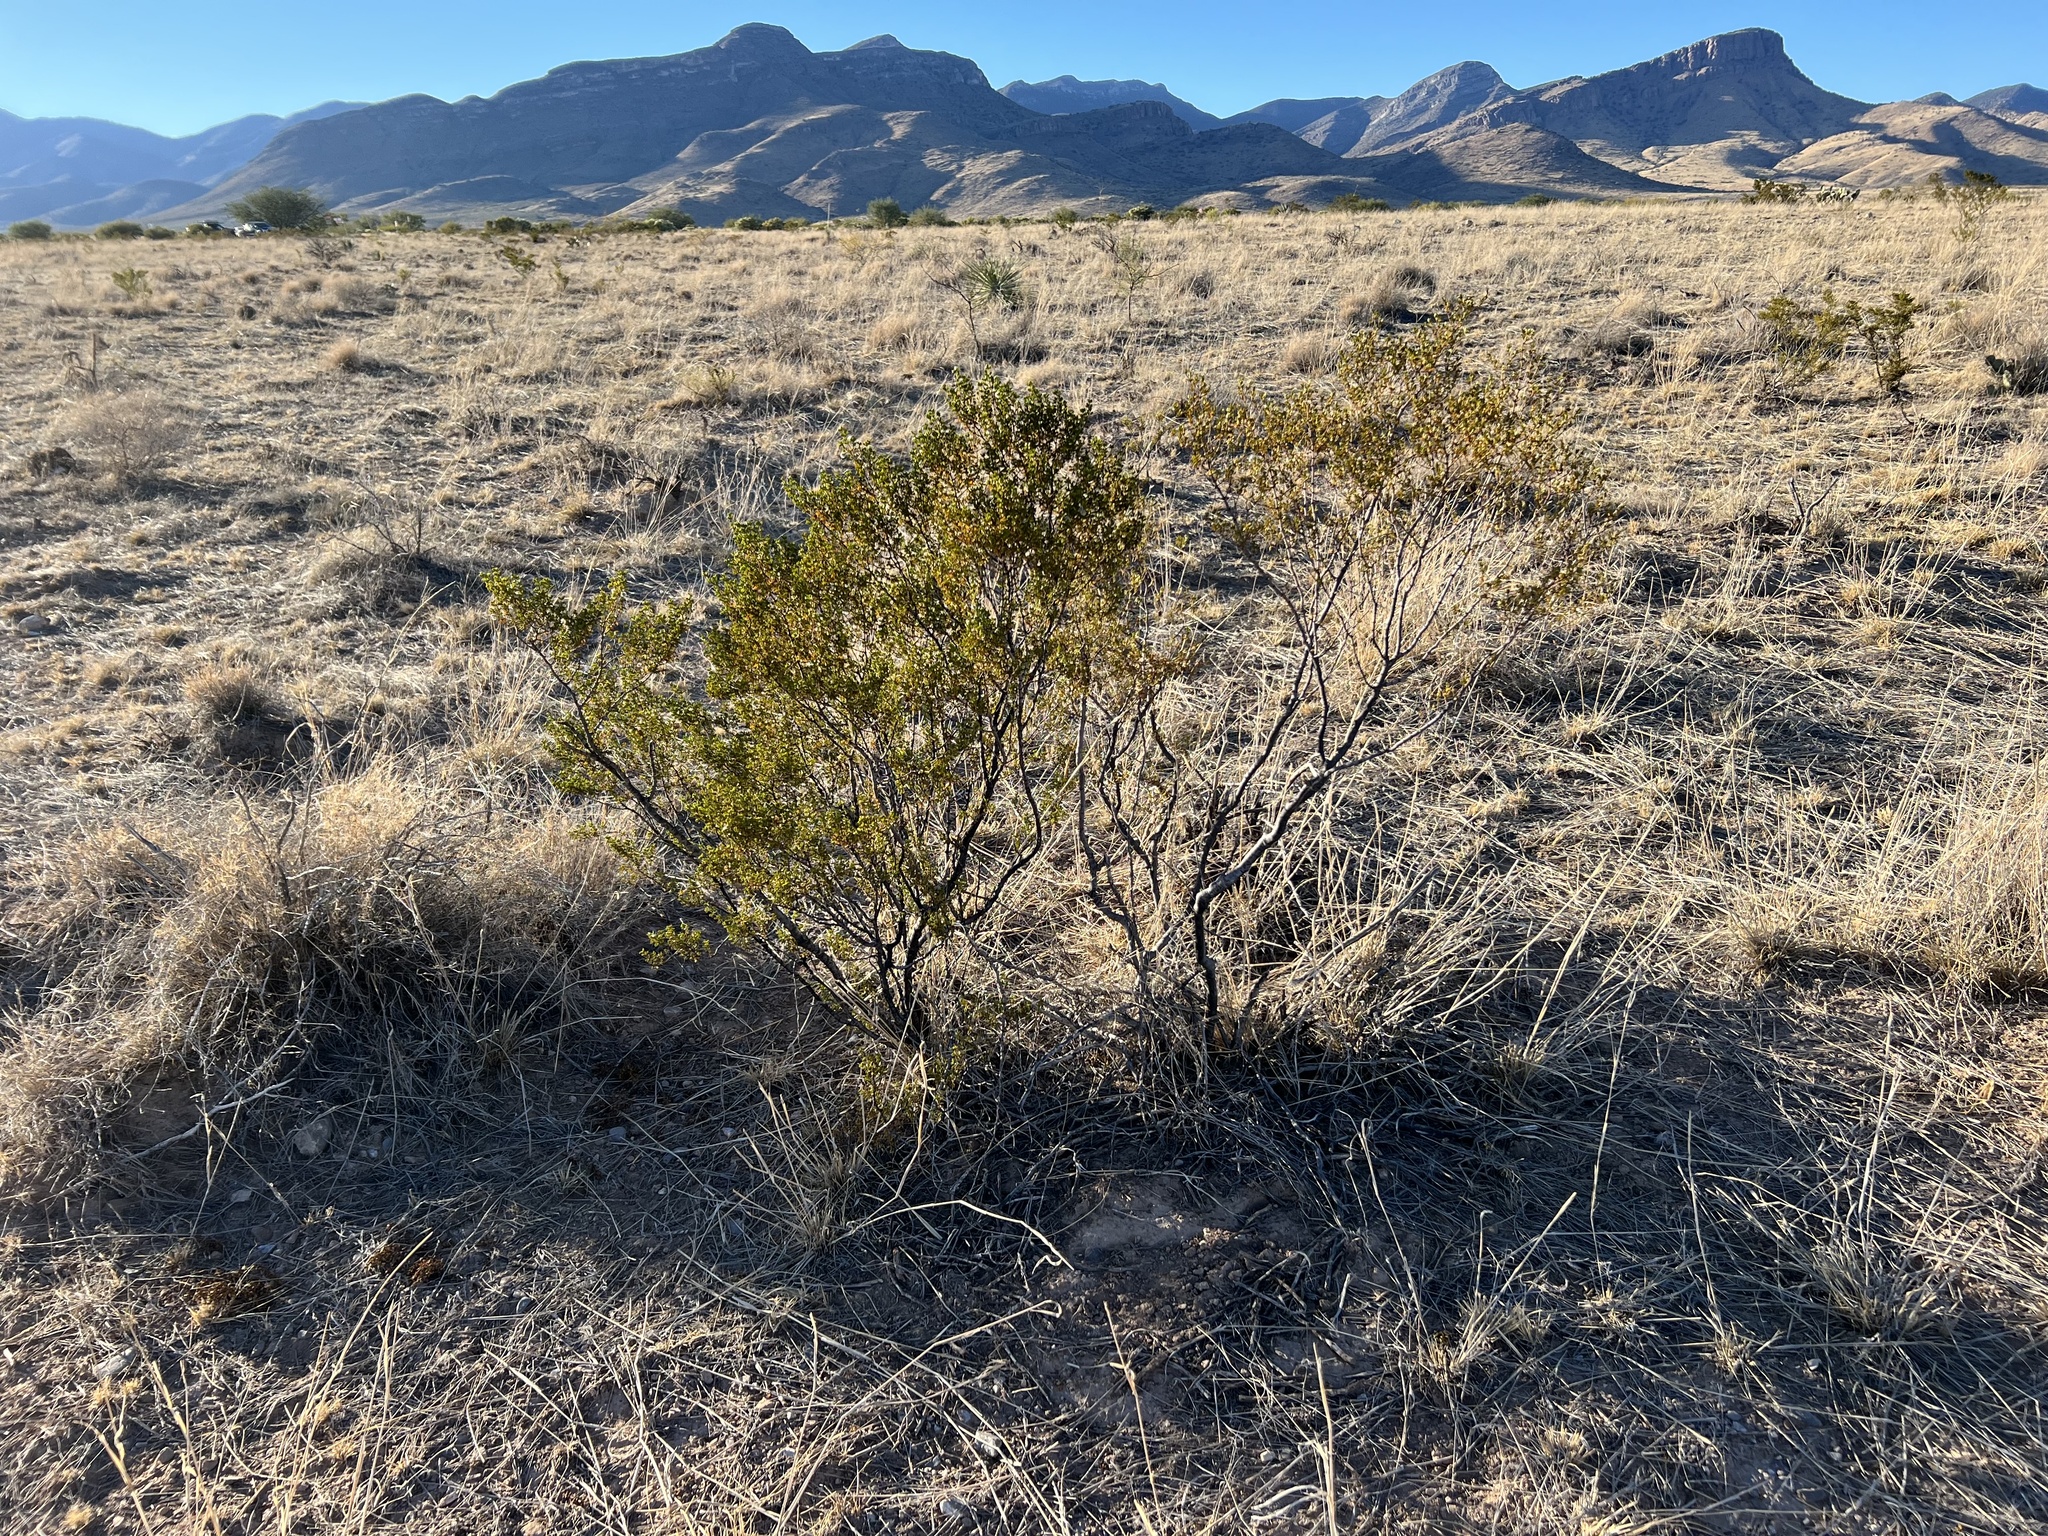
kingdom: Plantae
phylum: Tracheophyta
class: Magnoliopsida
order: Zygophyllales
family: Zygophyllaceae
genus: Larrea
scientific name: Larrea tridentata
